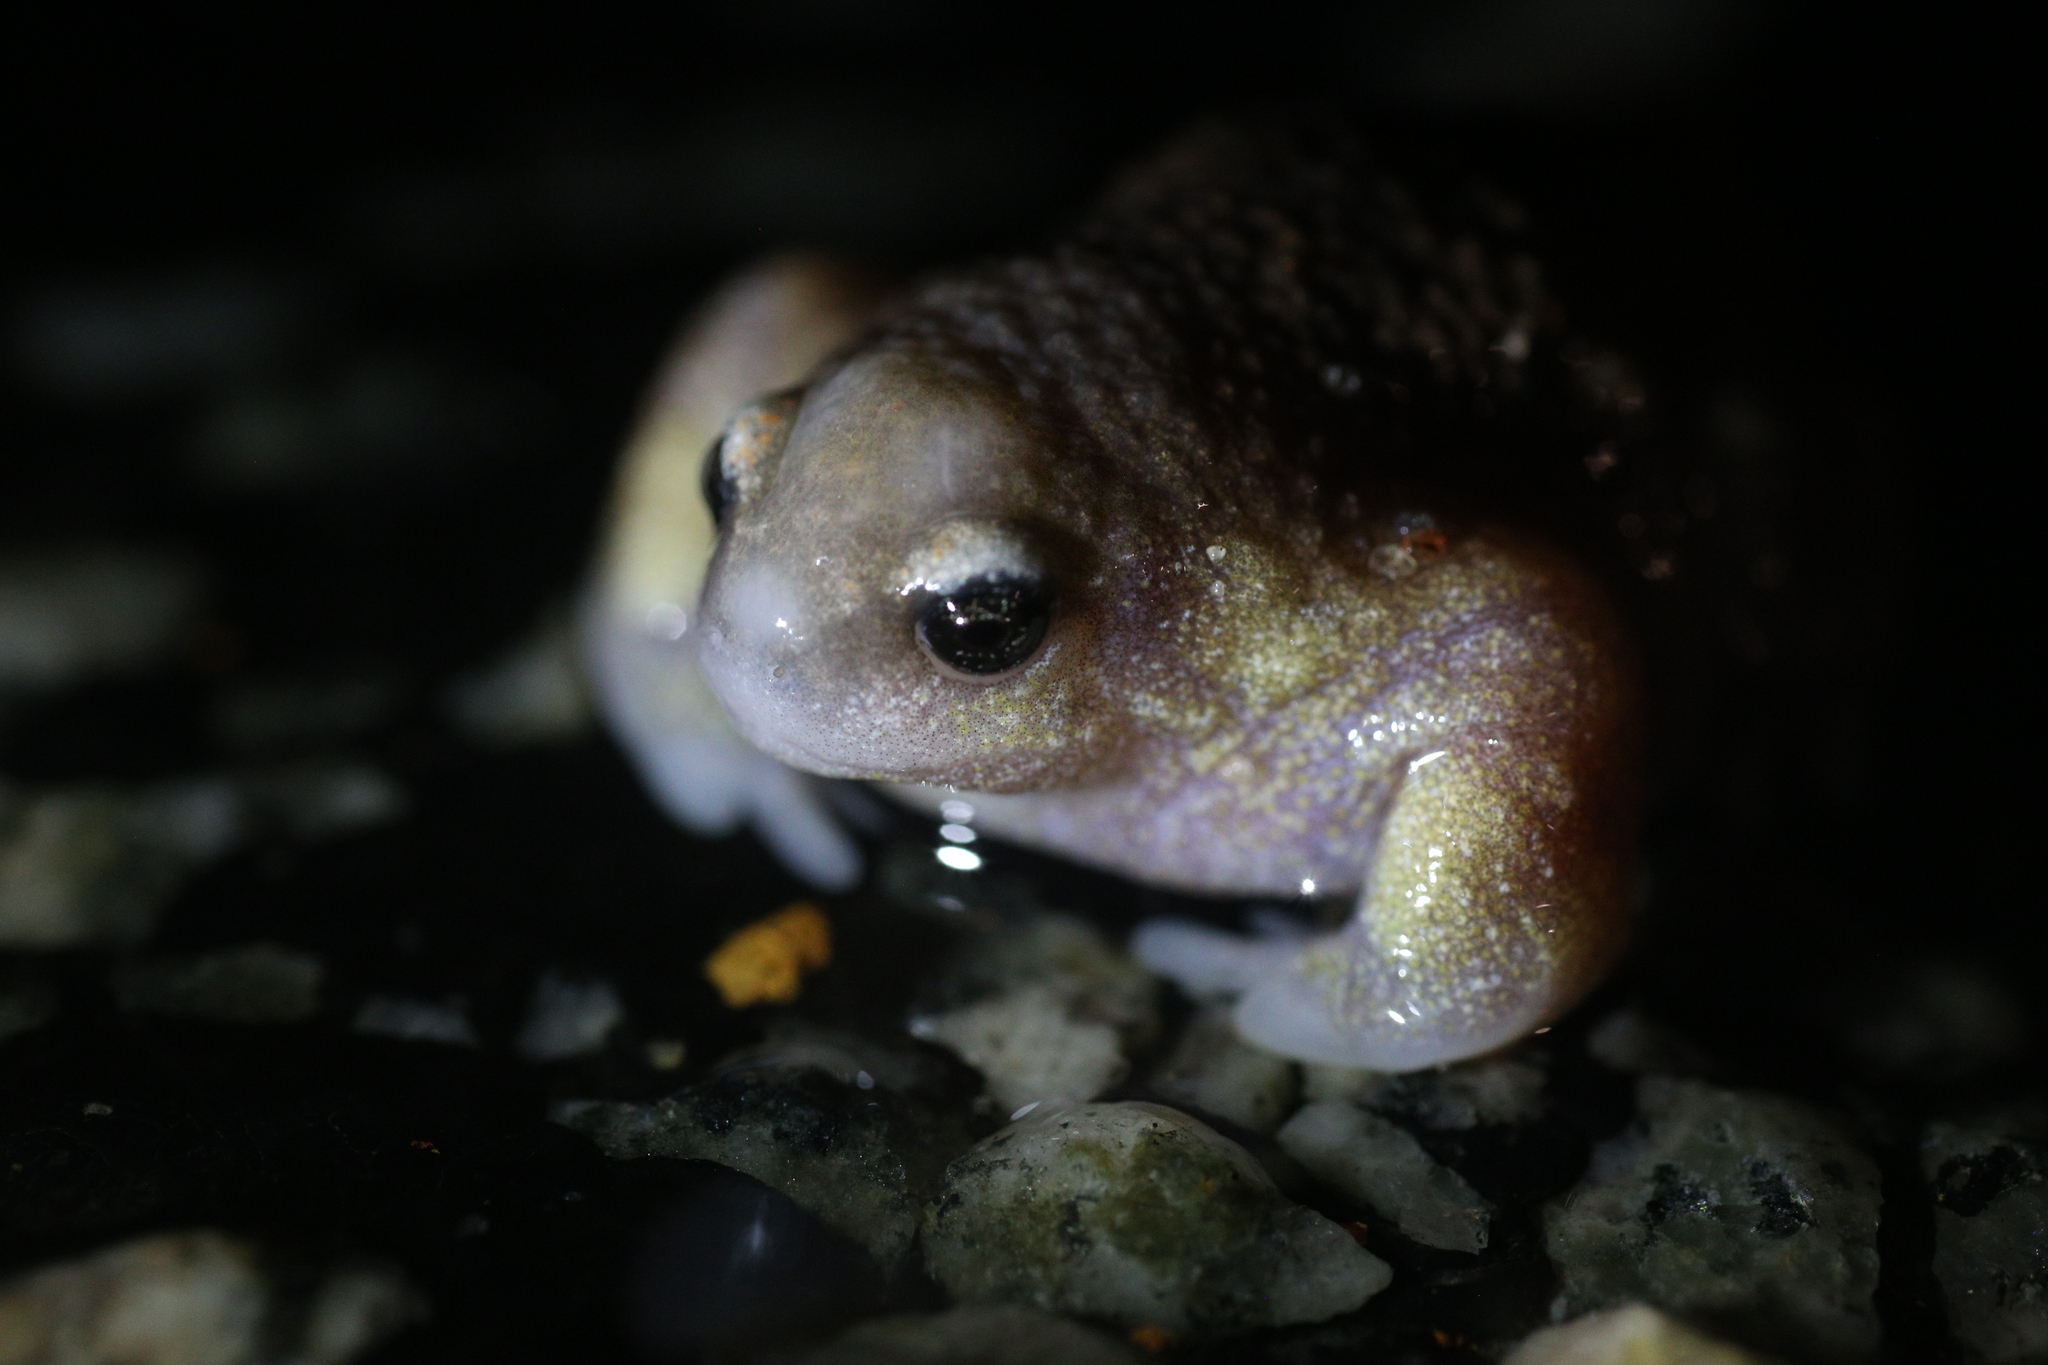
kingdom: Animalia
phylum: Chordata
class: Amphibia
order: Anura
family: Myobatrachidae
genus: Myobatrachus
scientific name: Myobatrachus gouldii
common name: Turtle frog
